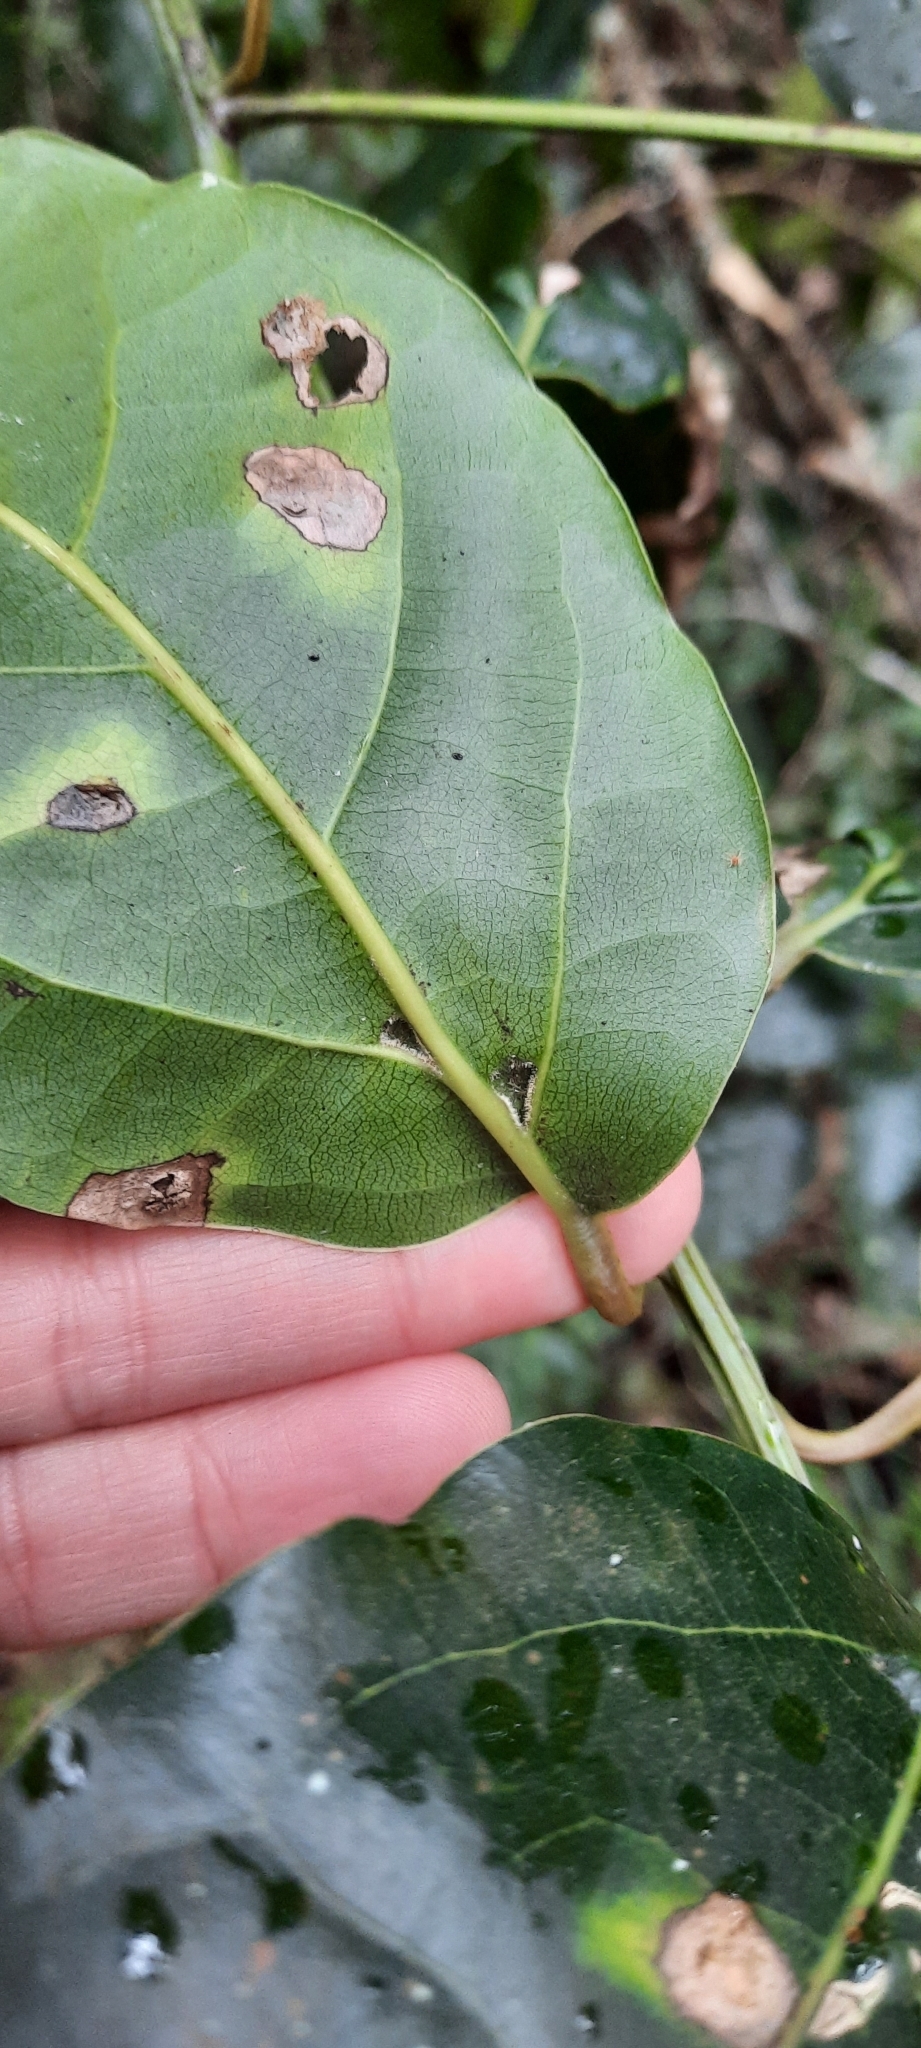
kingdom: Plantae
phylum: Tracheophyta
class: Magnoliopsida
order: Laurales
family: Lauraceae
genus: Ocotea
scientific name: Ocotea bullata
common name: Black stinkwood
